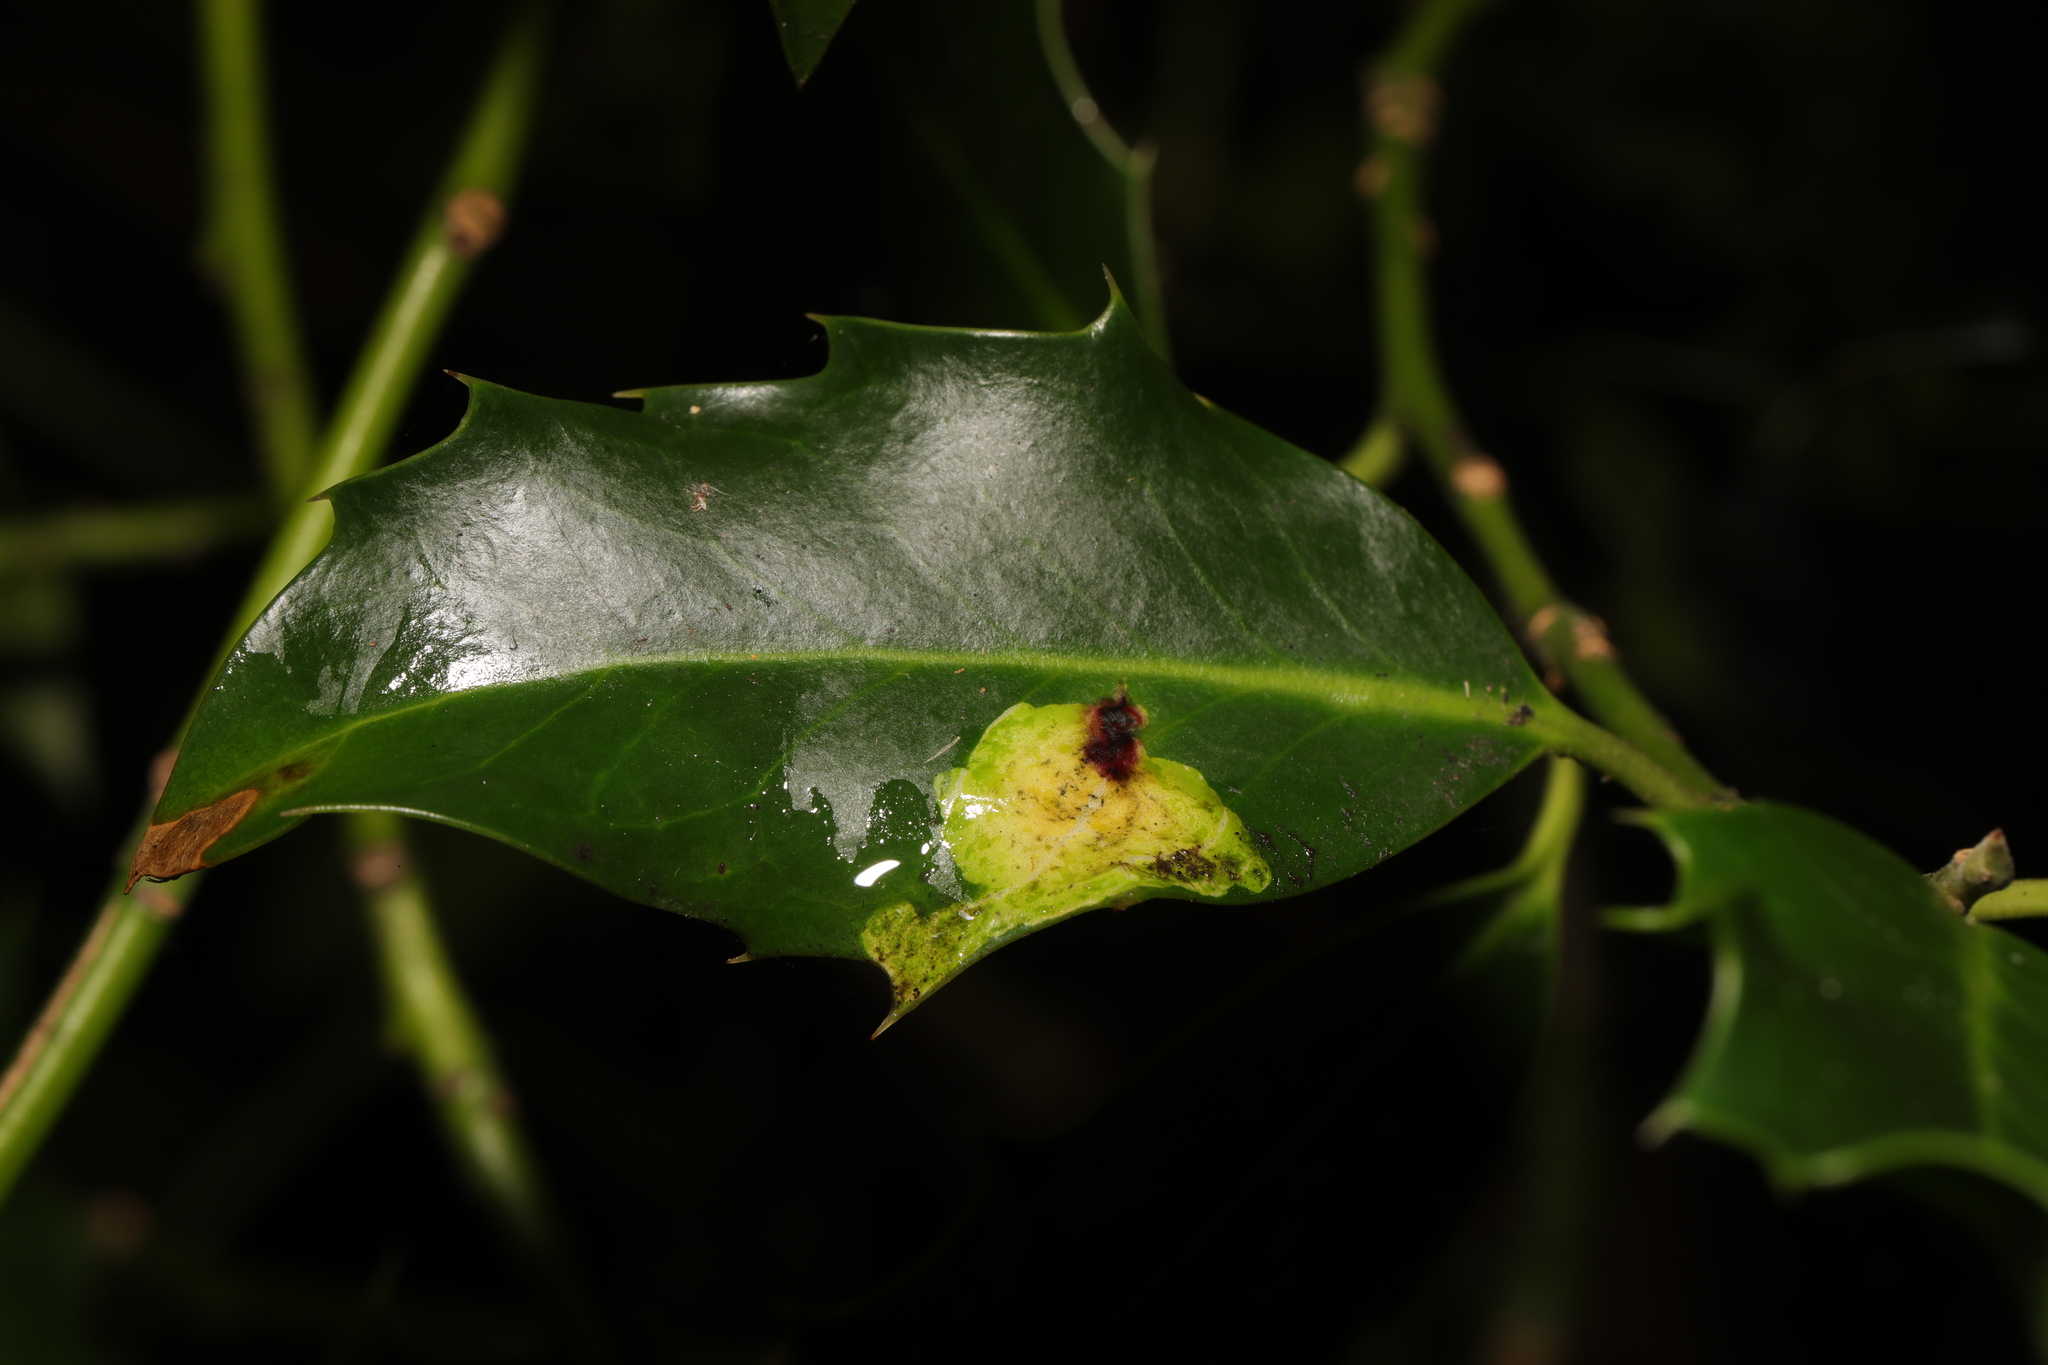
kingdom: Animalia
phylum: Arthropoda
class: Insecta
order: Diptera
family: Agromyzidae
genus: Phytomyza
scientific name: Phytomyza ilicis
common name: Holly leafminer
